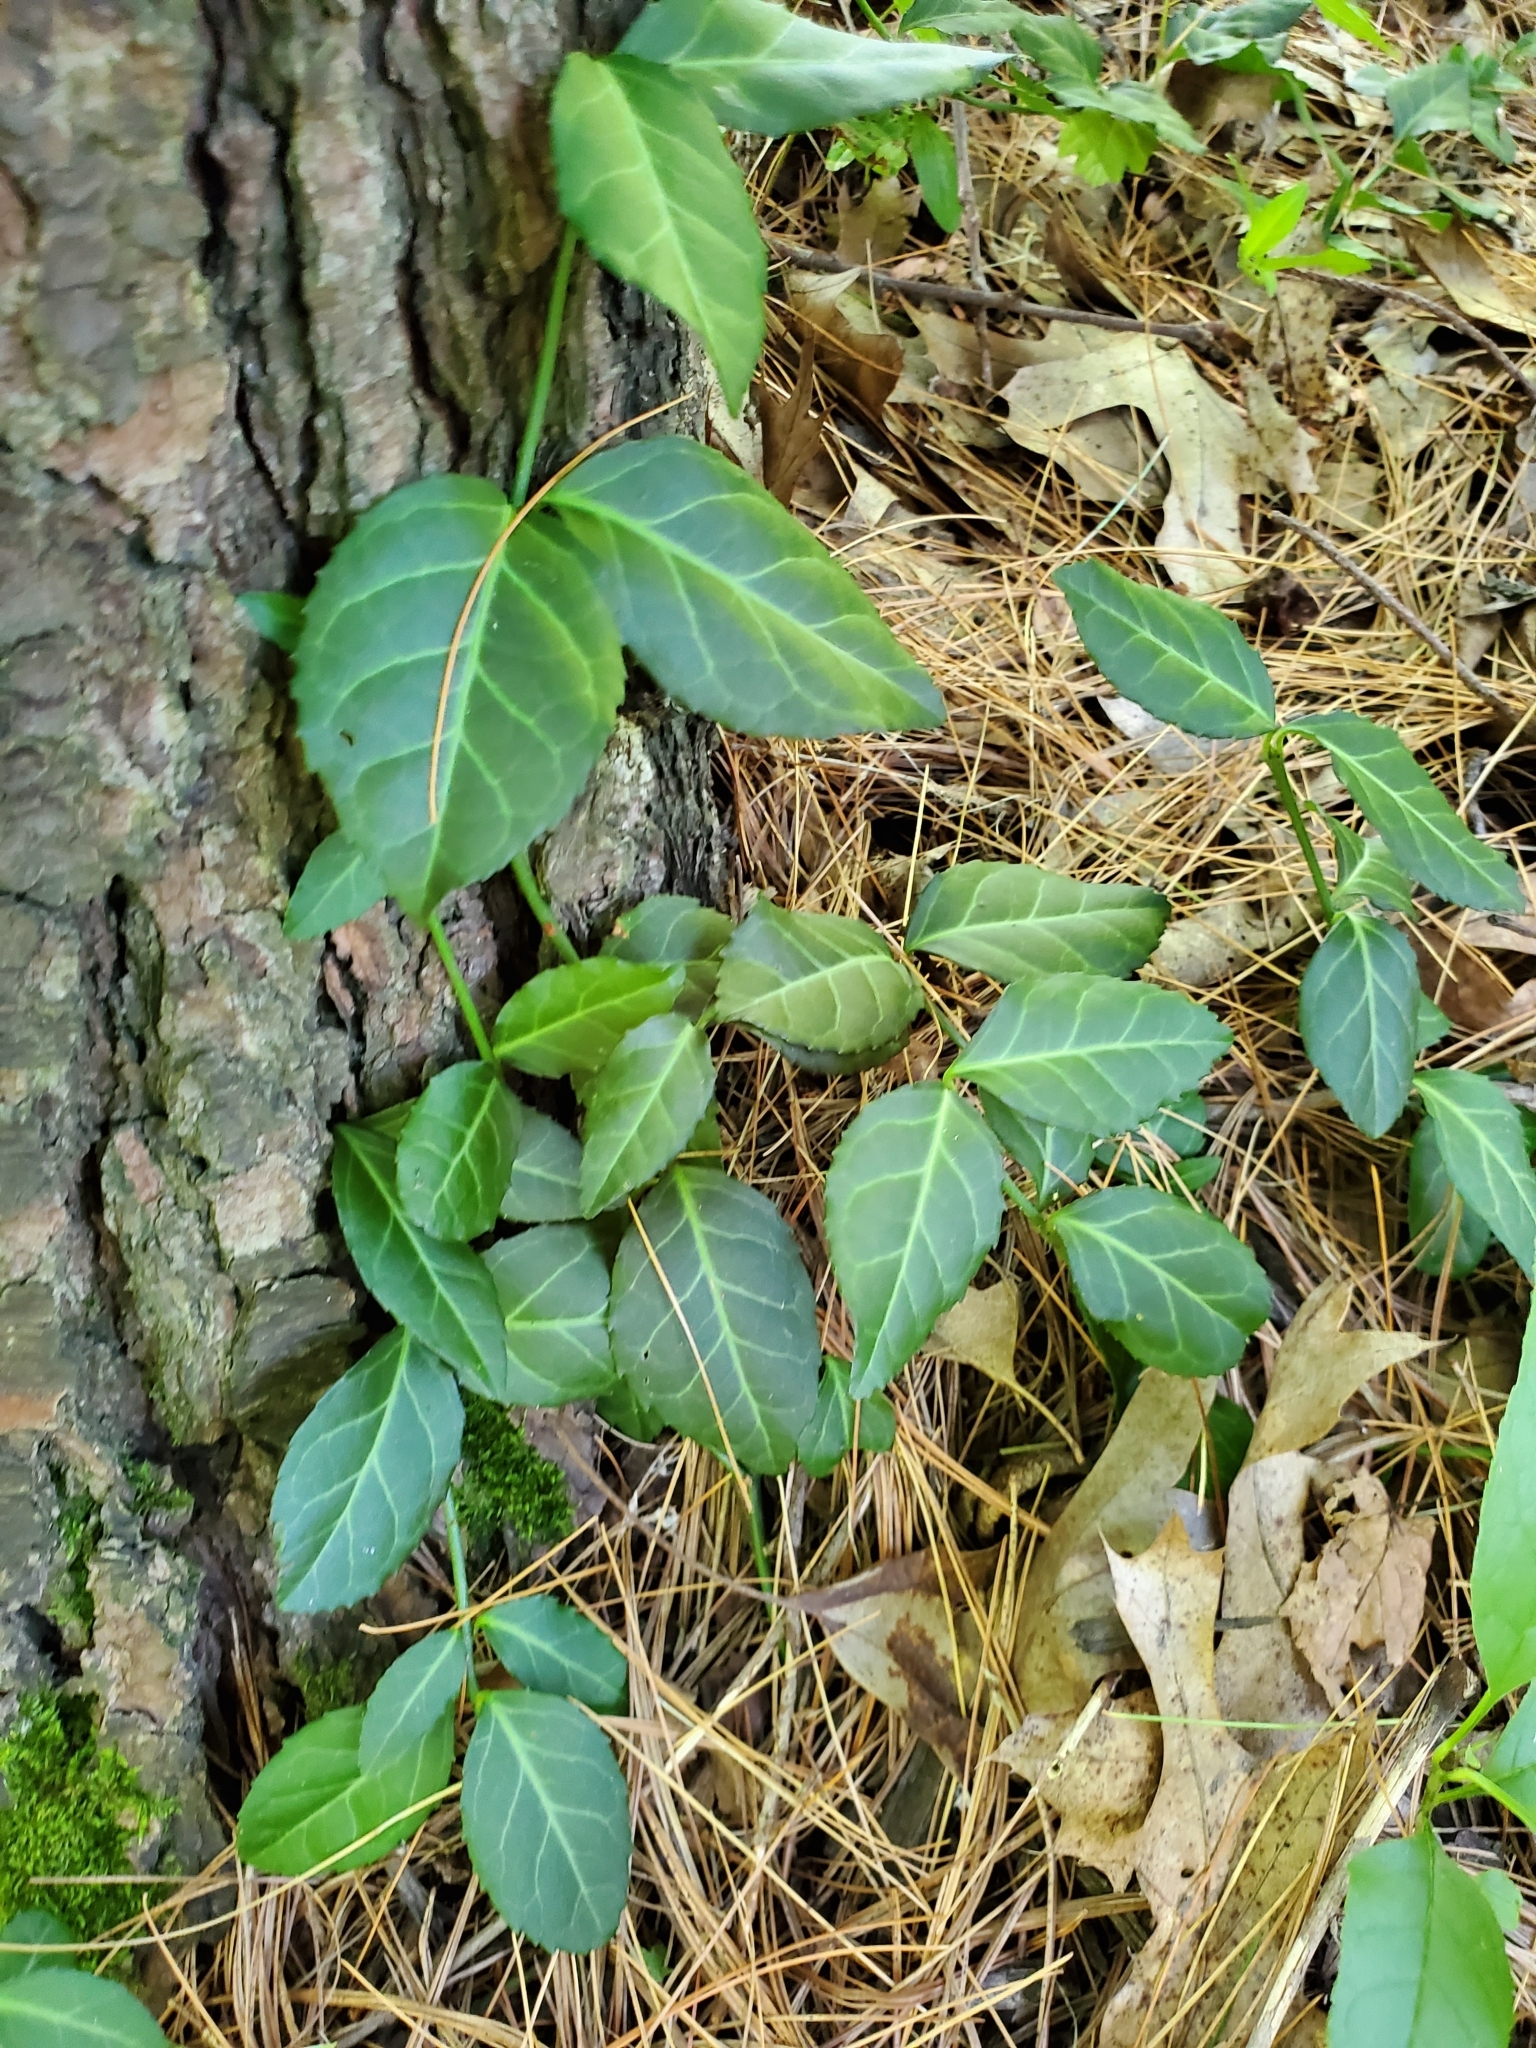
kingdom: Plantae
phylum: Tracheophyta
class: Magnoliopsida
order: Celastrales
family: Celastraceae
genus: Euonymus
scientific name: Euonymus fortunei
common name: Climbing euonymus
